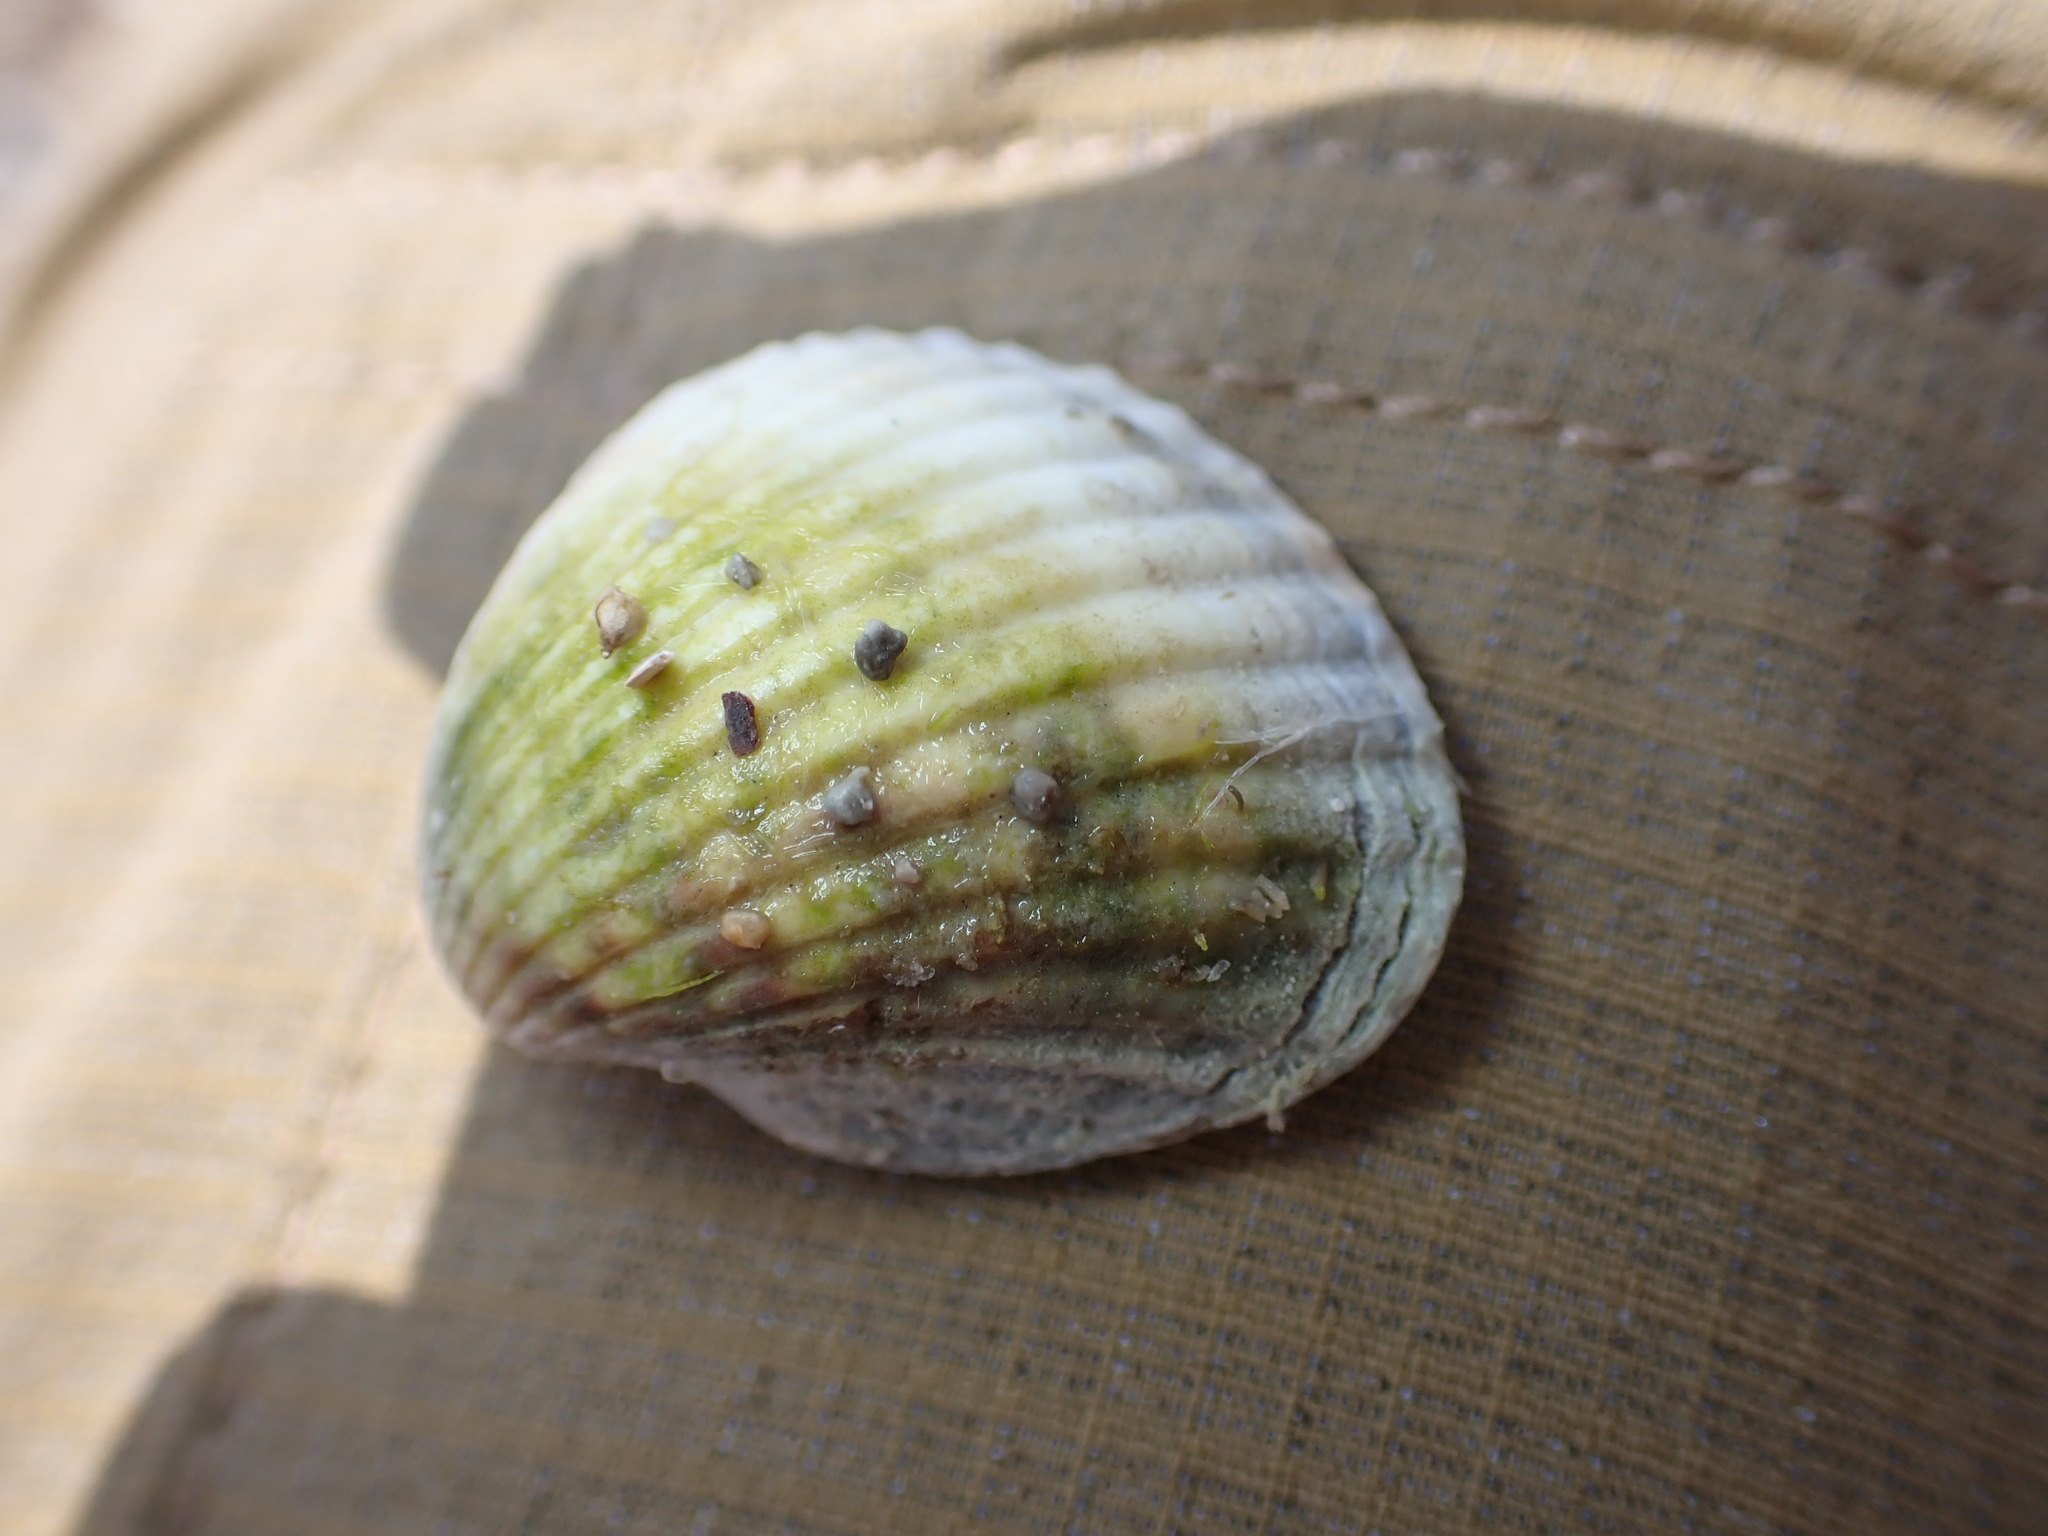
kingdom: Animalia
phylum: Mollusca
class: Bivalvia
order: Cardiida
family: Cardiidae
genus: Cerastoderma
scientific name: Cerastoderma glaucum
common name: Lagoon cockle
